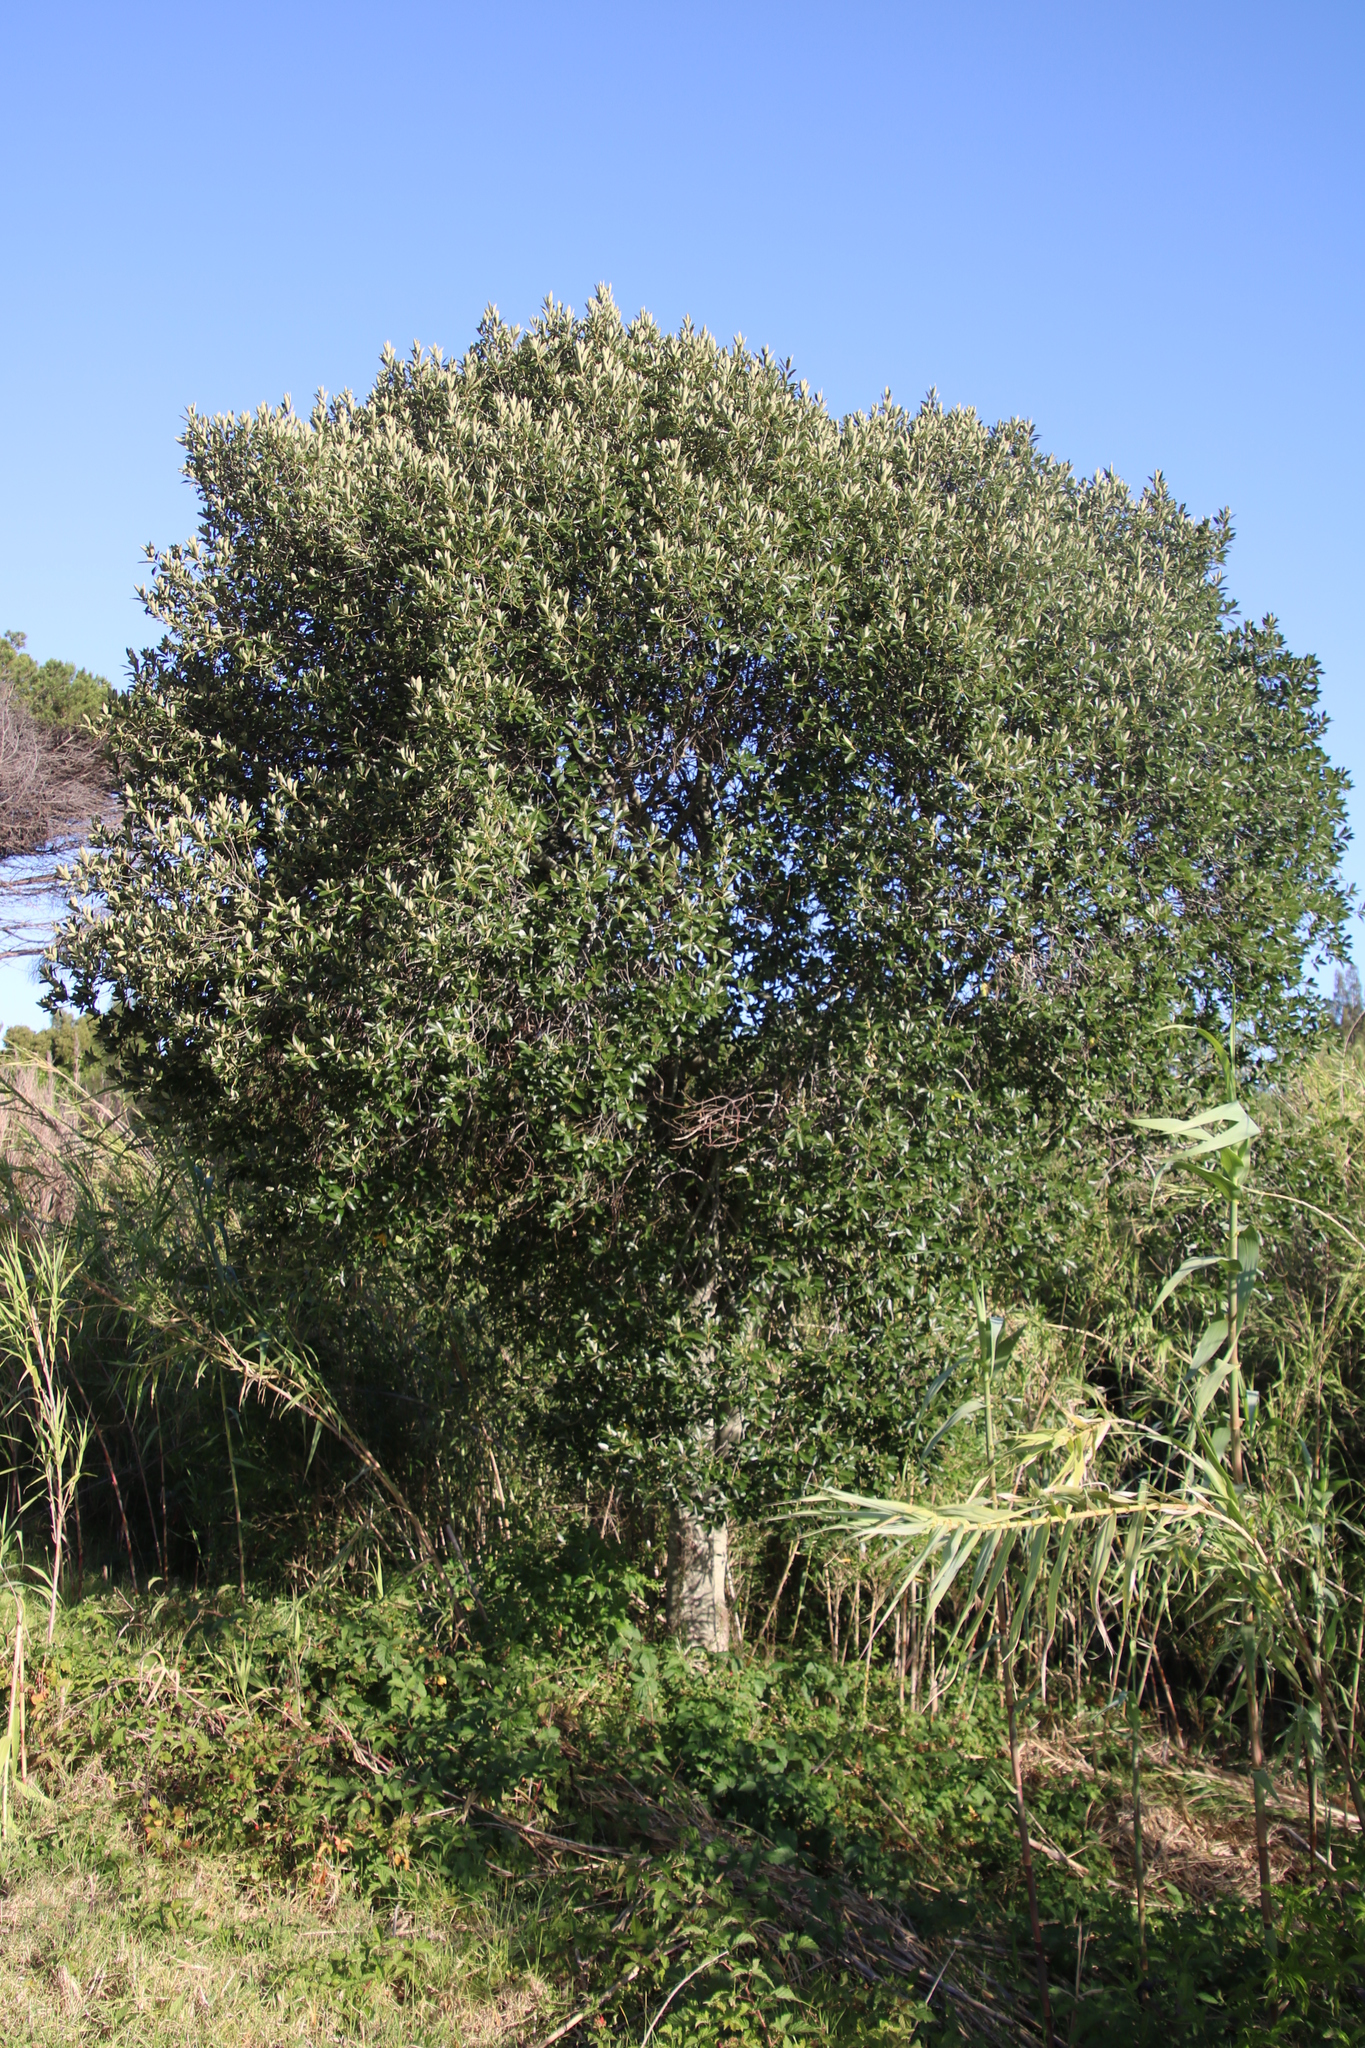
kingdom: Plantae
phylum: Tracheophyta
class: Magnoliopsida
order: Malpighiales
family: Achariaceae
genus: Kiggelaria
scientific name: Kiggelaria africana
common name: Wild peach
